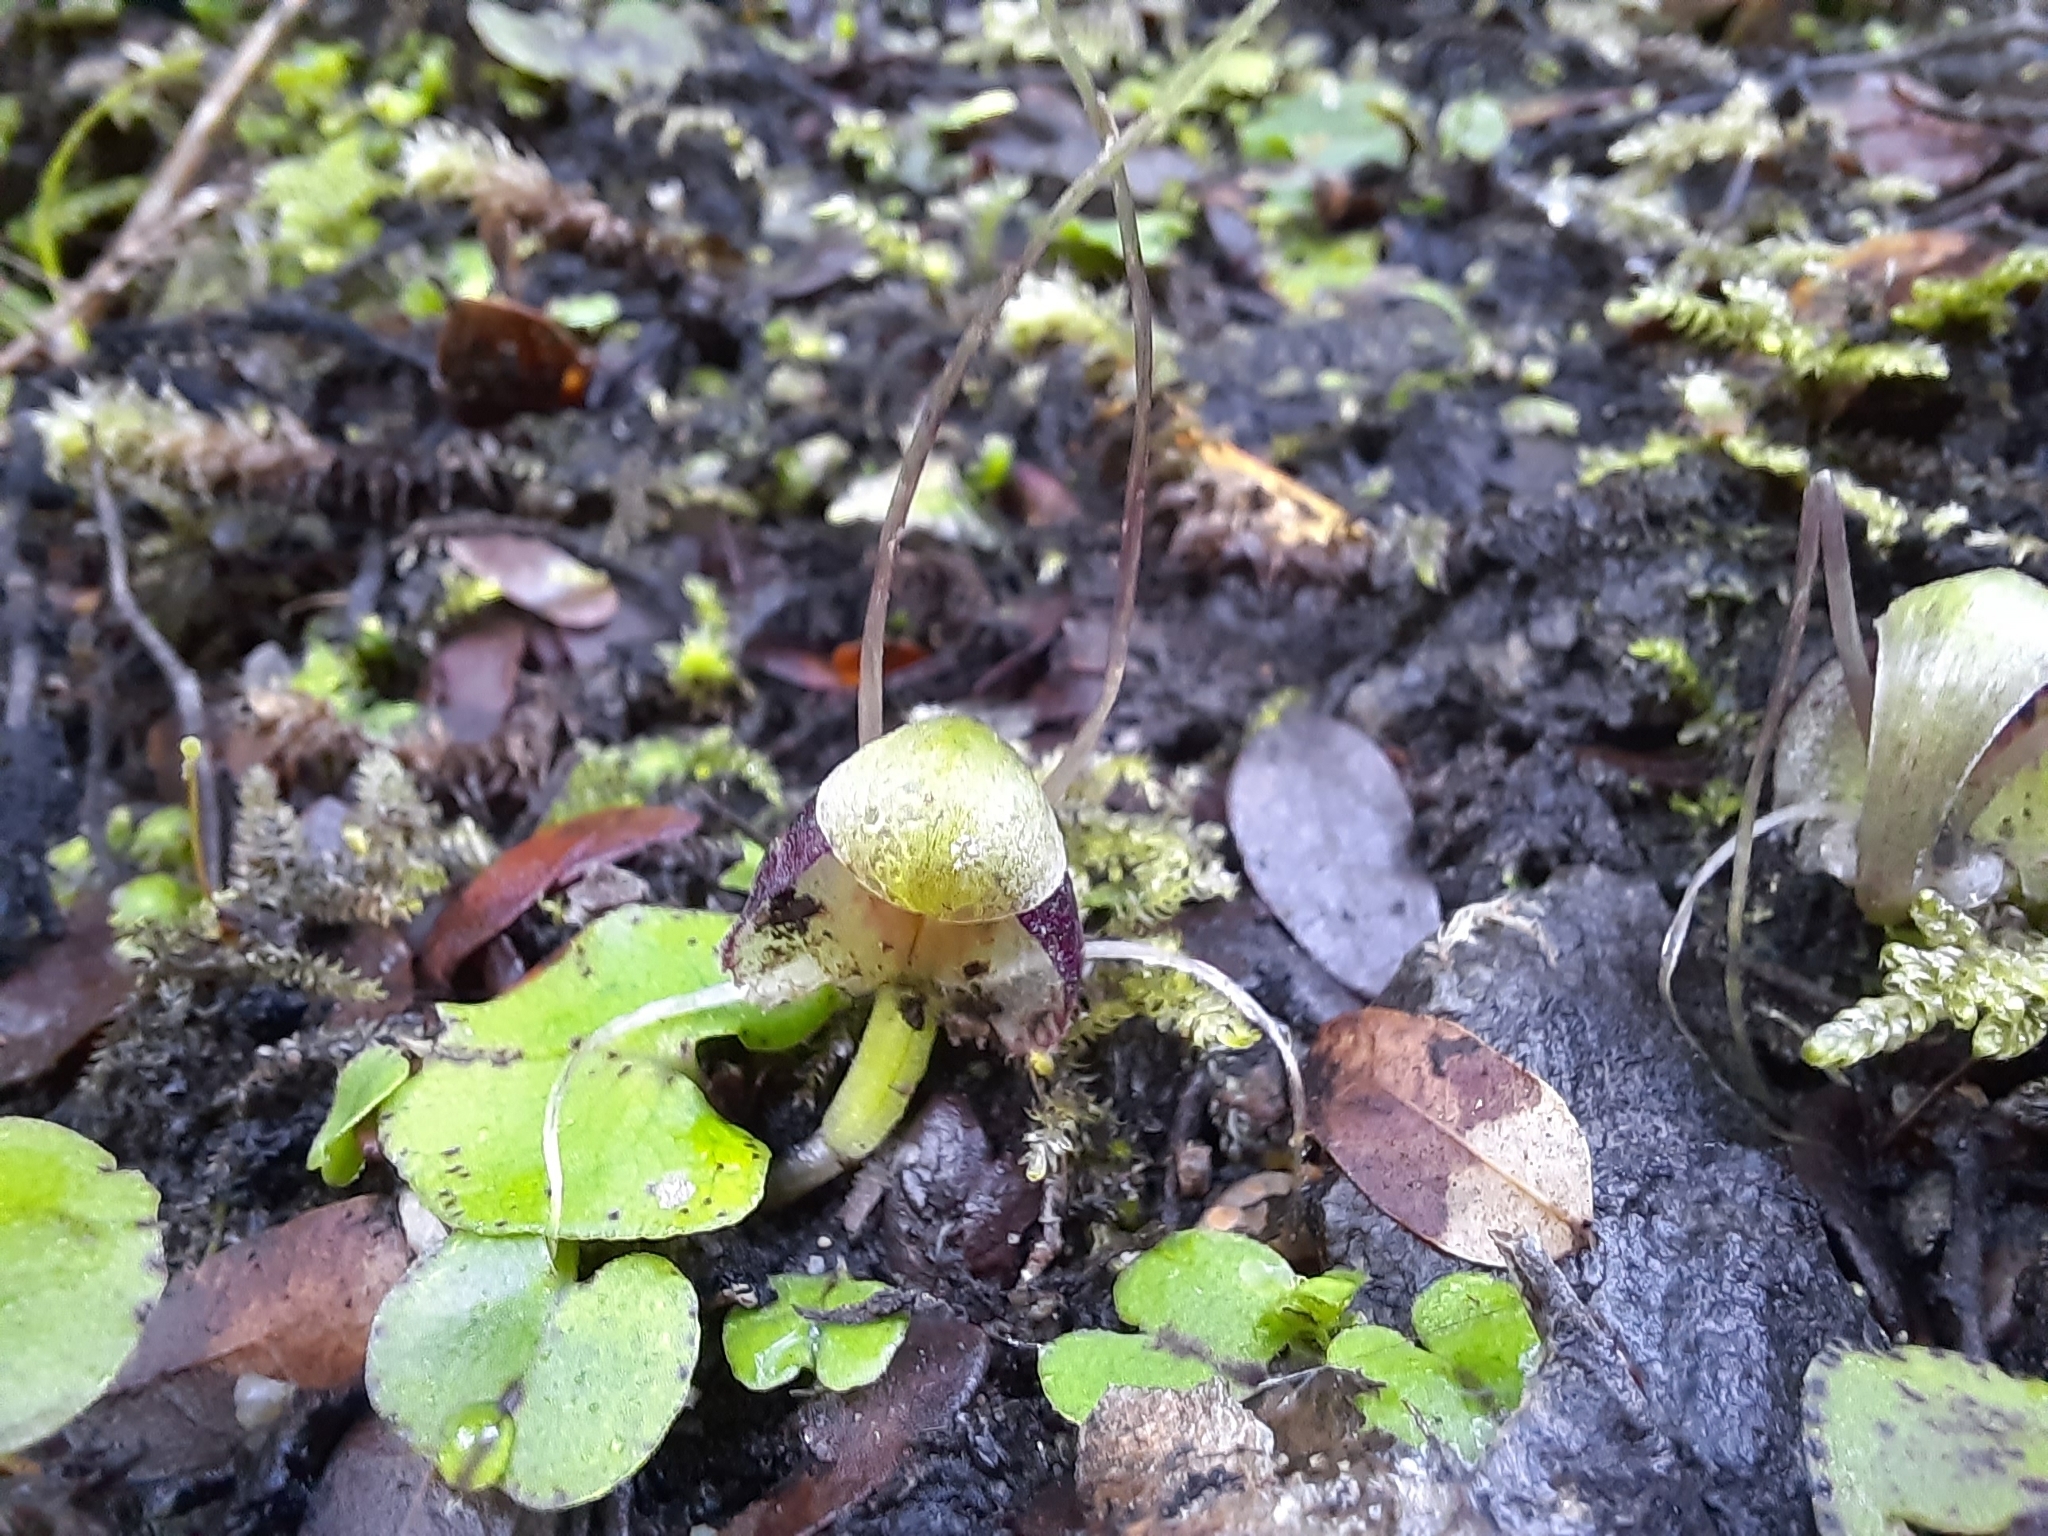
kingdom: Plantae
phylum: Tracheophyta
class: Liliopsida
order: Asparagales
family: Orchidaceae
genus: Corybas
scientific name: Corybas vitreus
